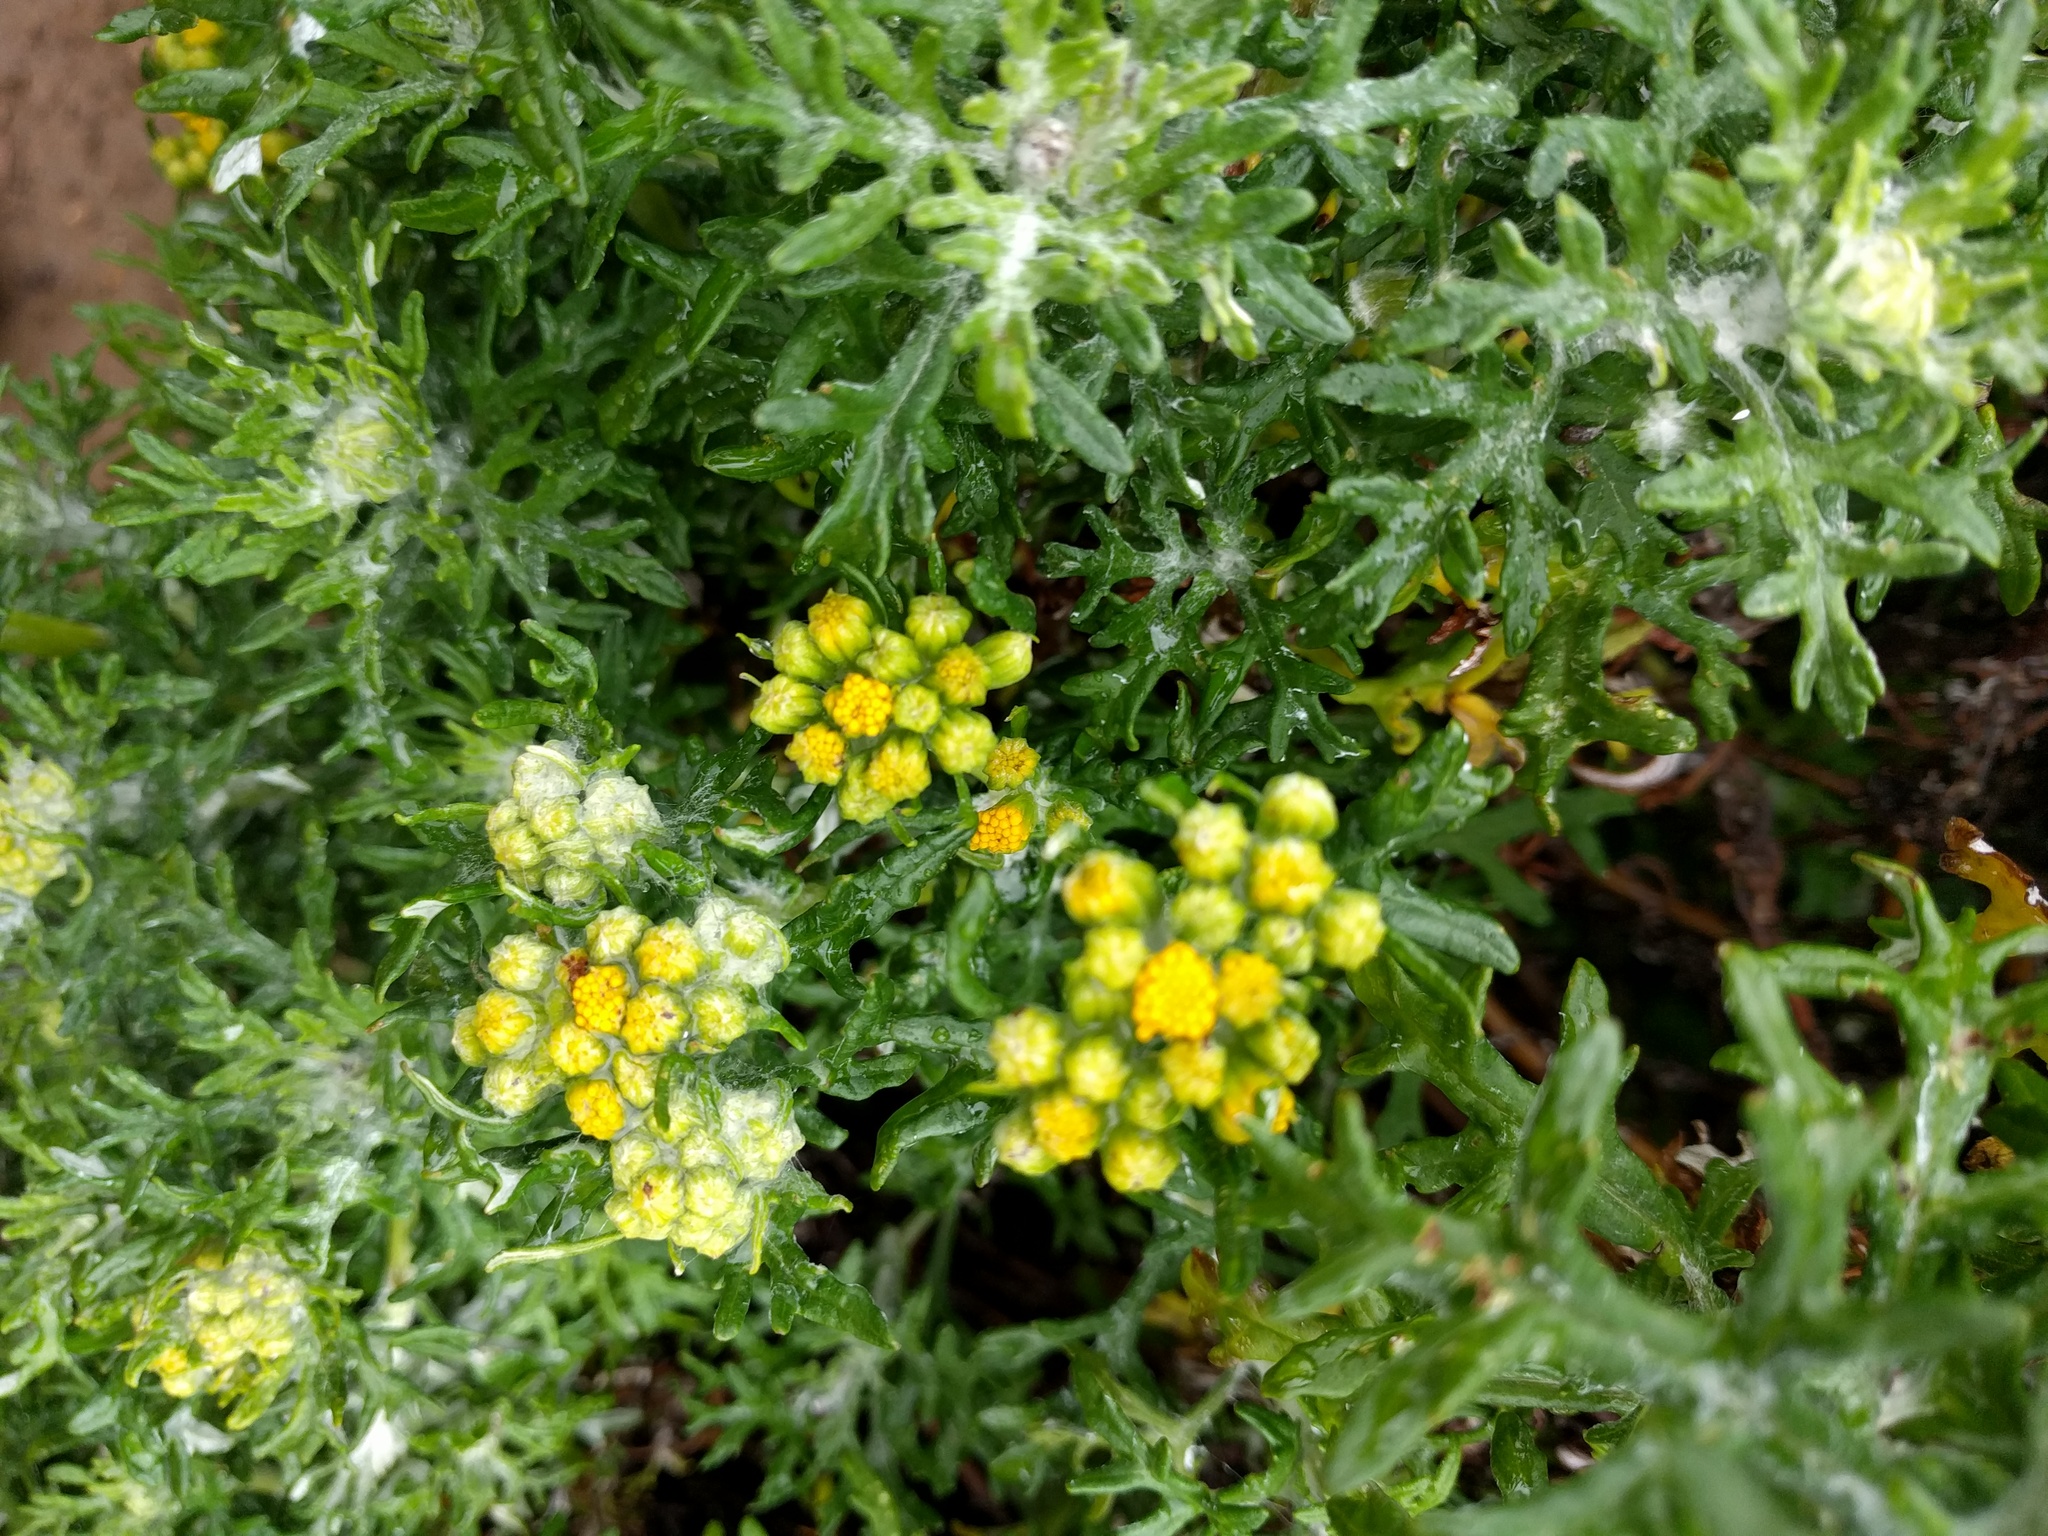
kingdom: Plantae
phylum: Tracheophyta
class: Magnoliopsida
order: Asterales
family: Asteraceae
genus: Eriophyllum
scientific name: Eriophyllum staechadifolium
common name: Lizardtail
